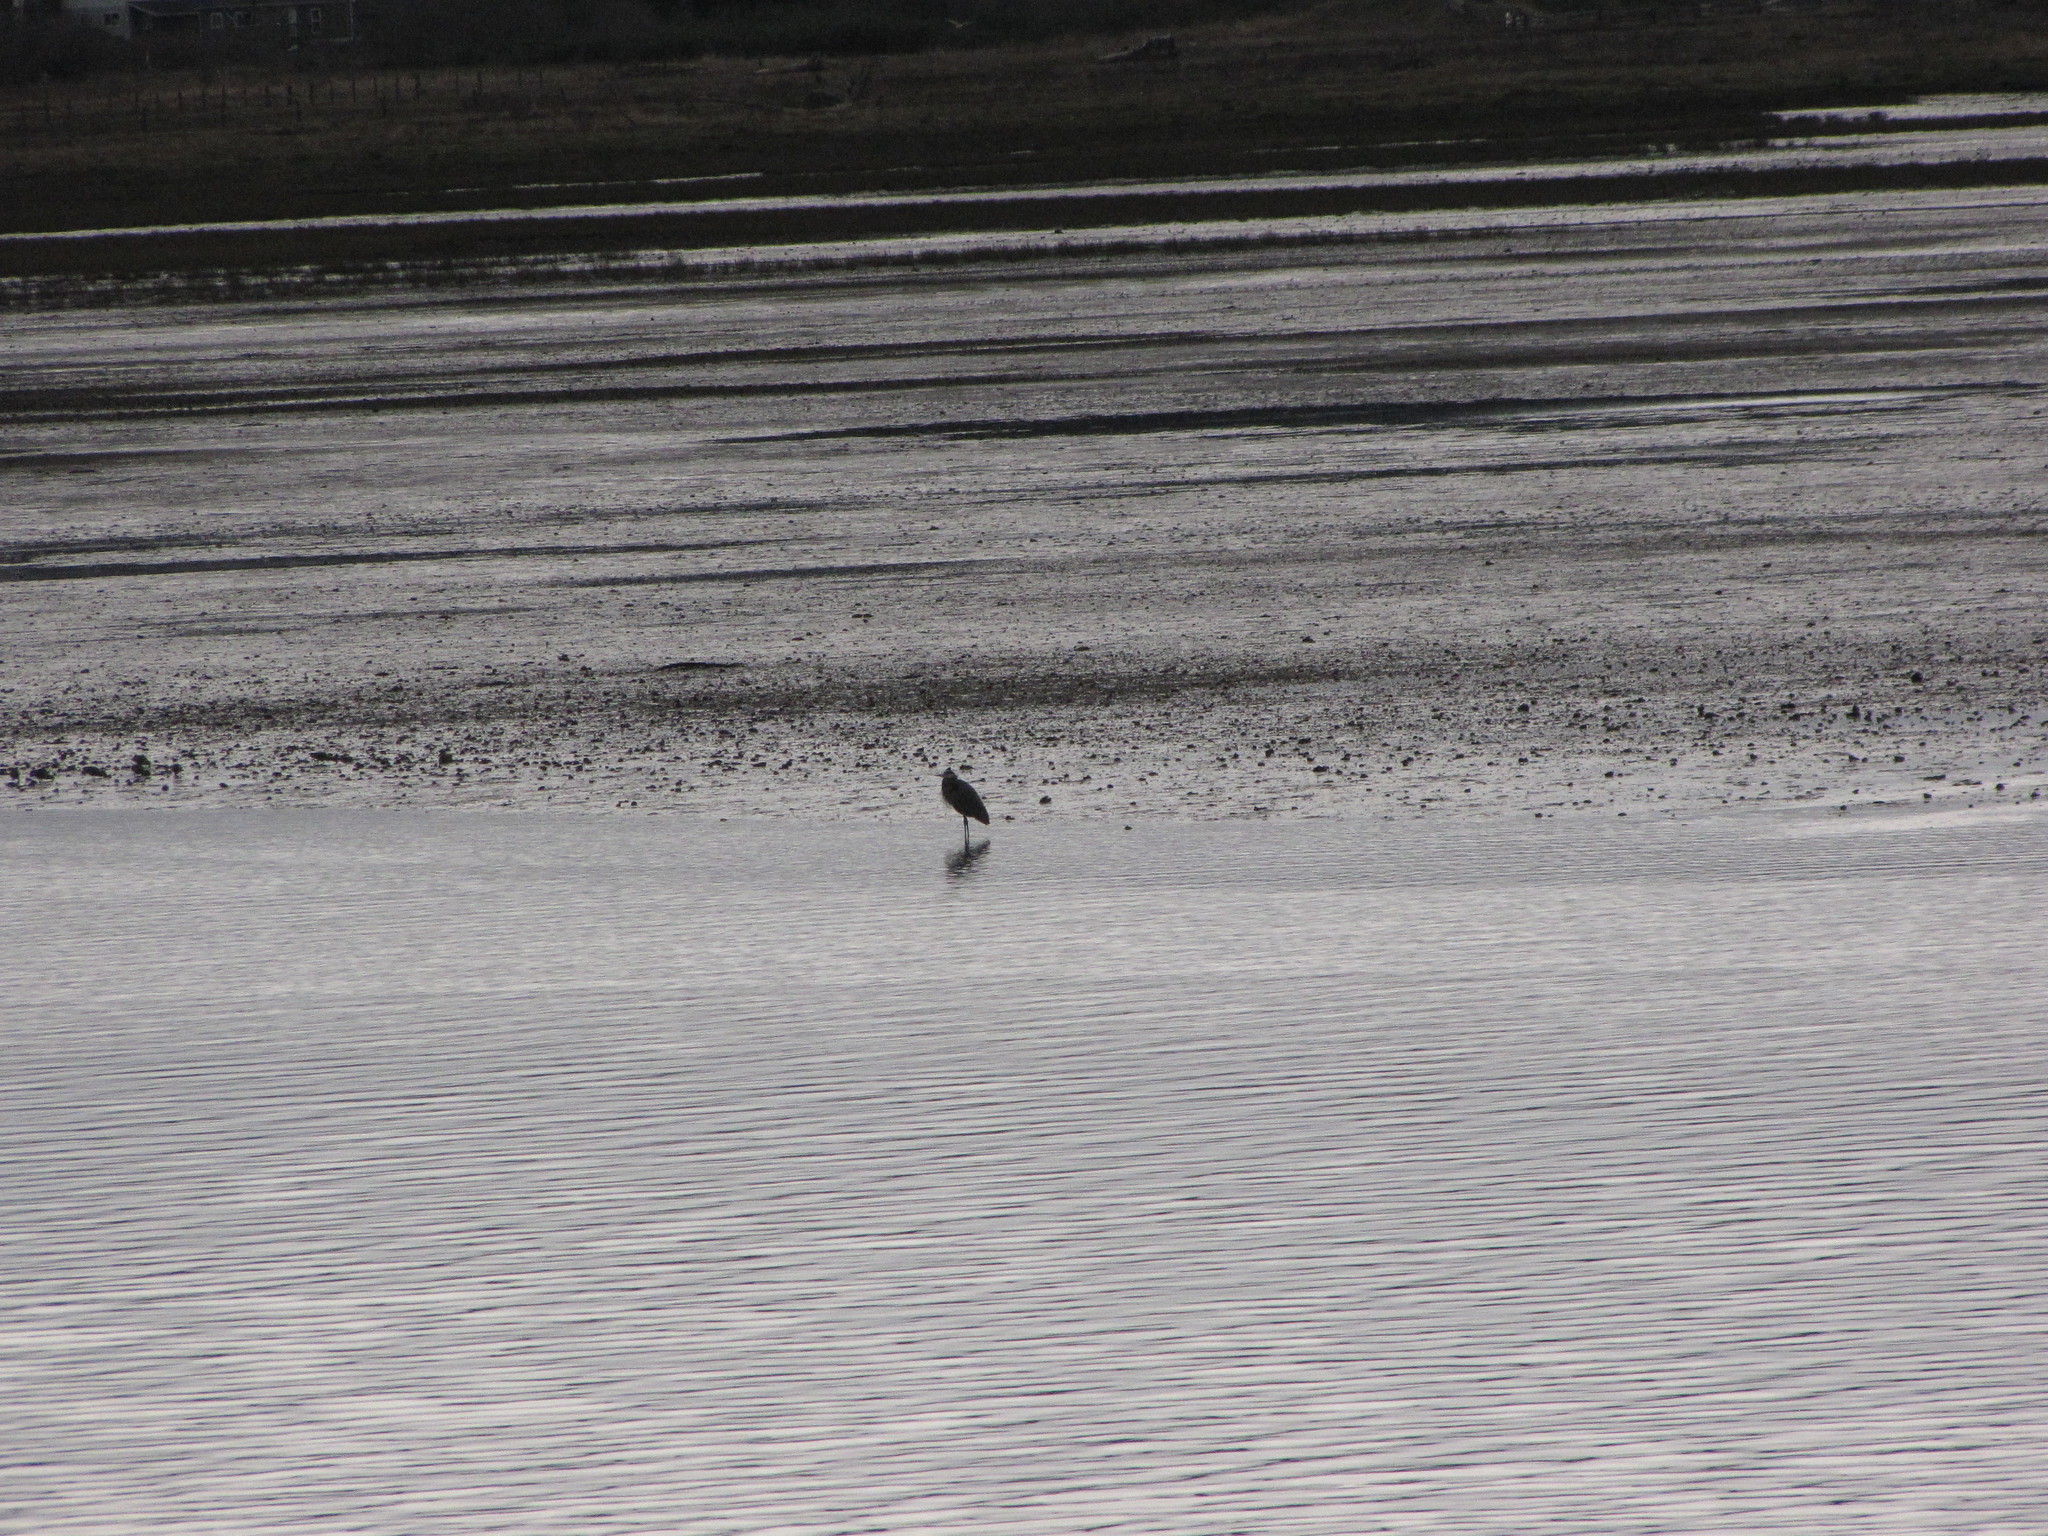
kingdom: Animalia
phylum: Chordata
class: Aves
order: Pelecaniformes
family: Ardeidae
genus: Ardea
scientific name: Ardea herodias
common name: Great blue heron
